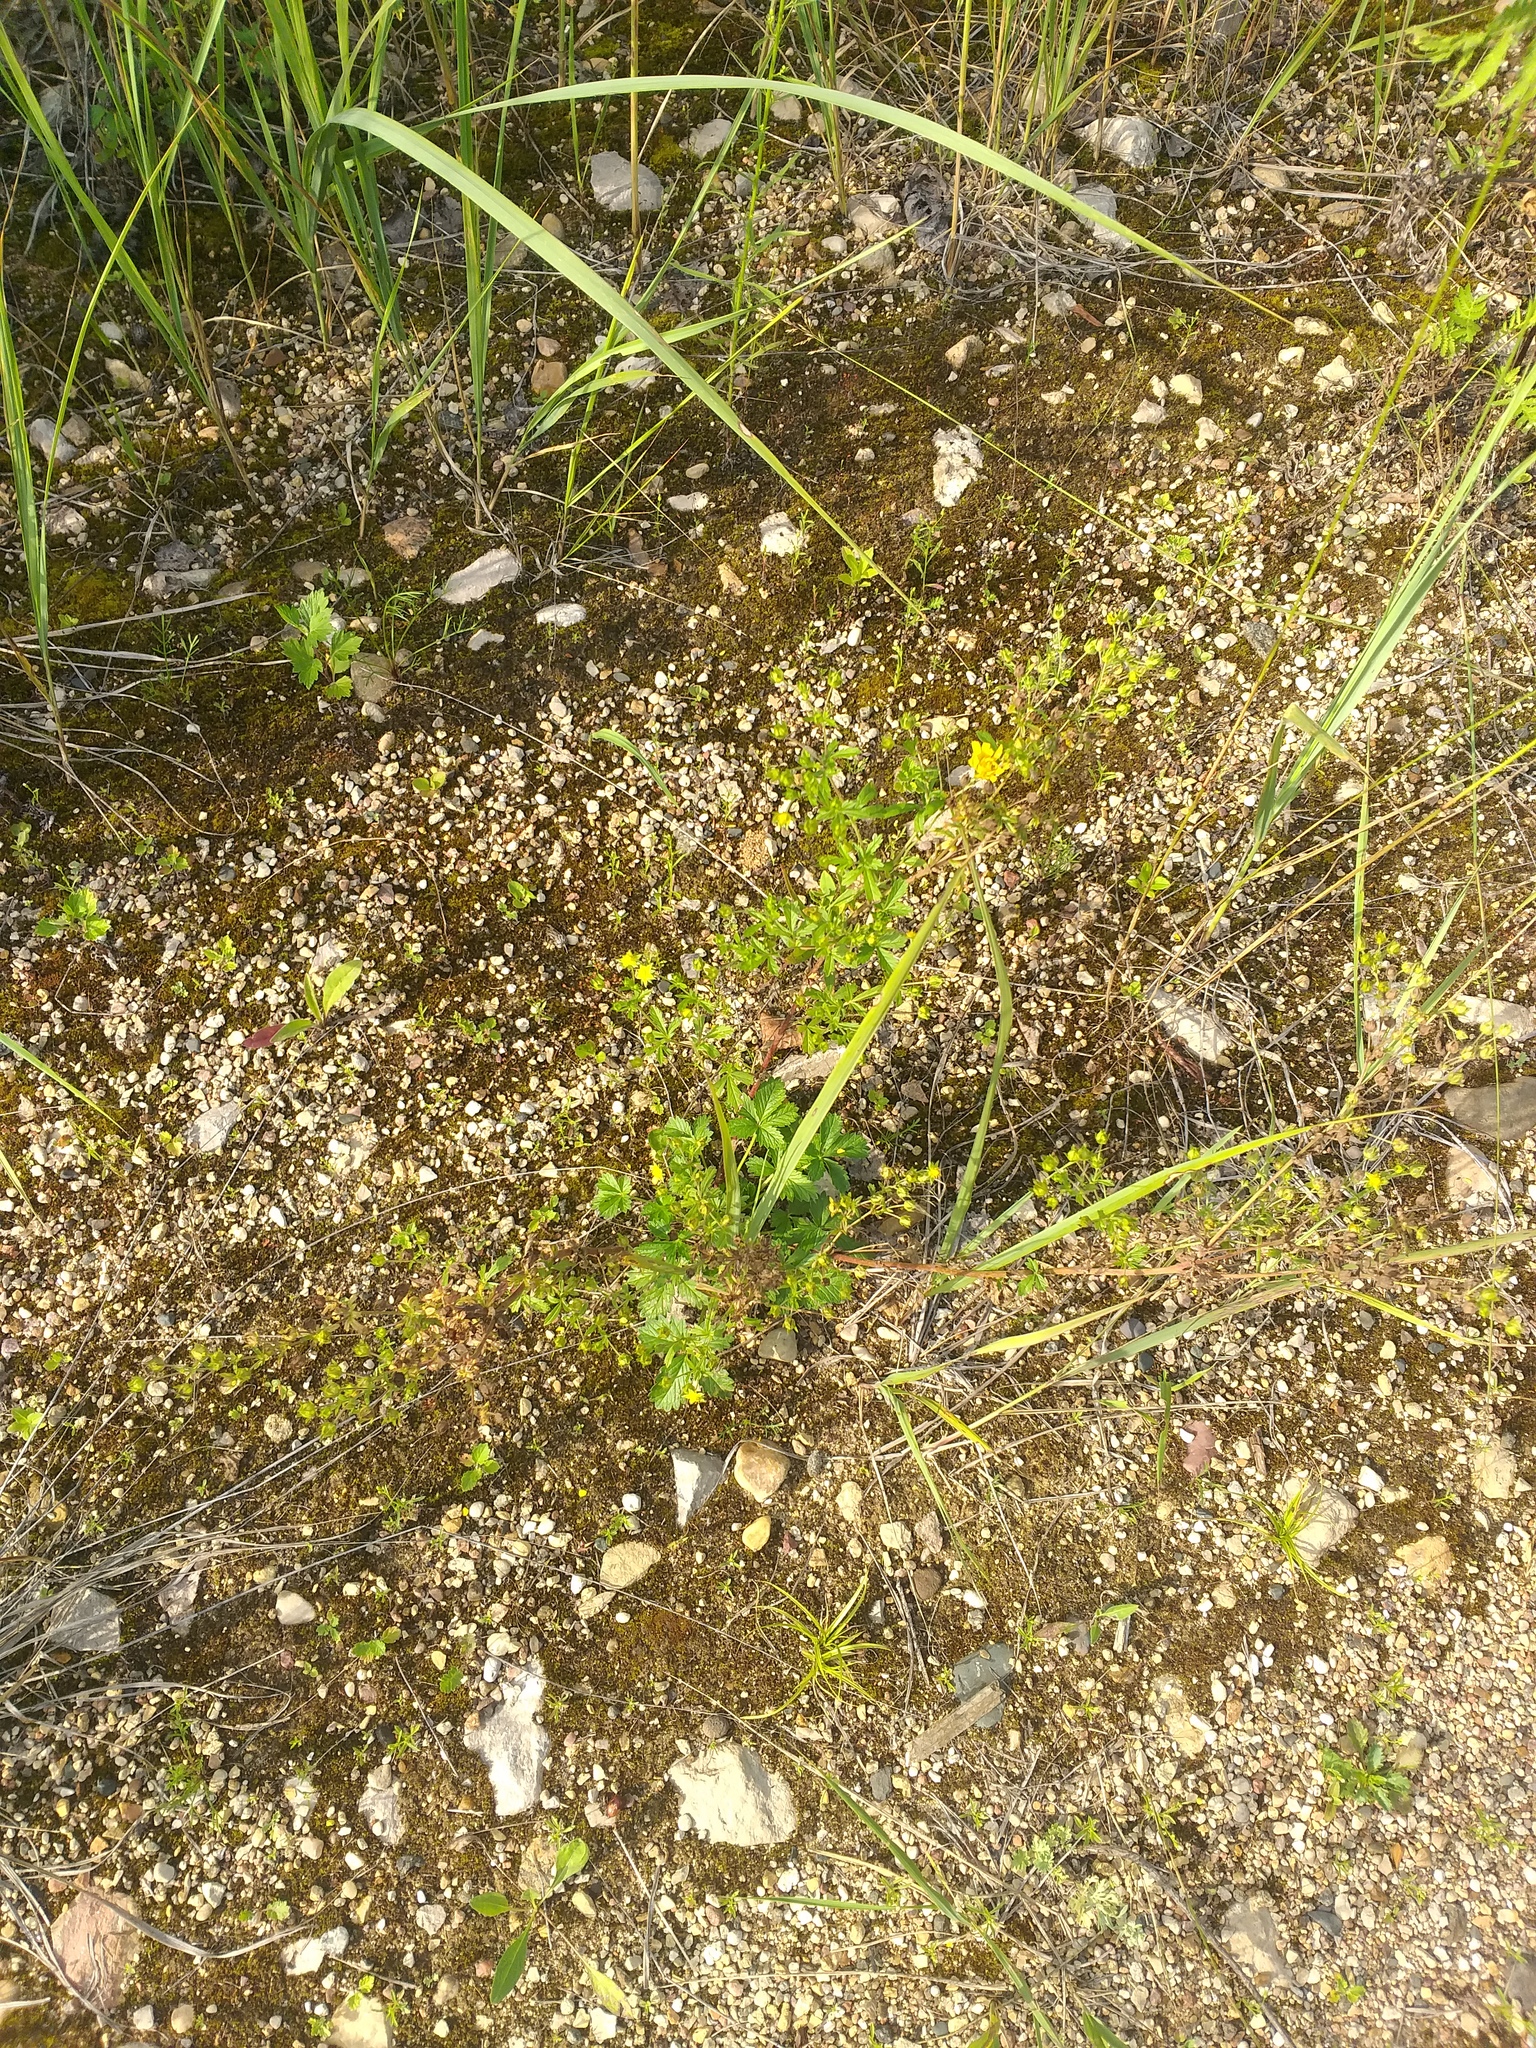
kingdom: Plantae
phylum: Tracheophyta
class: Magnoliopsida
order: Rosales
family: Rosaceae
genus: Potentilla
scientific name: Potentilla intermedia
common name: Downy cinquefoil
